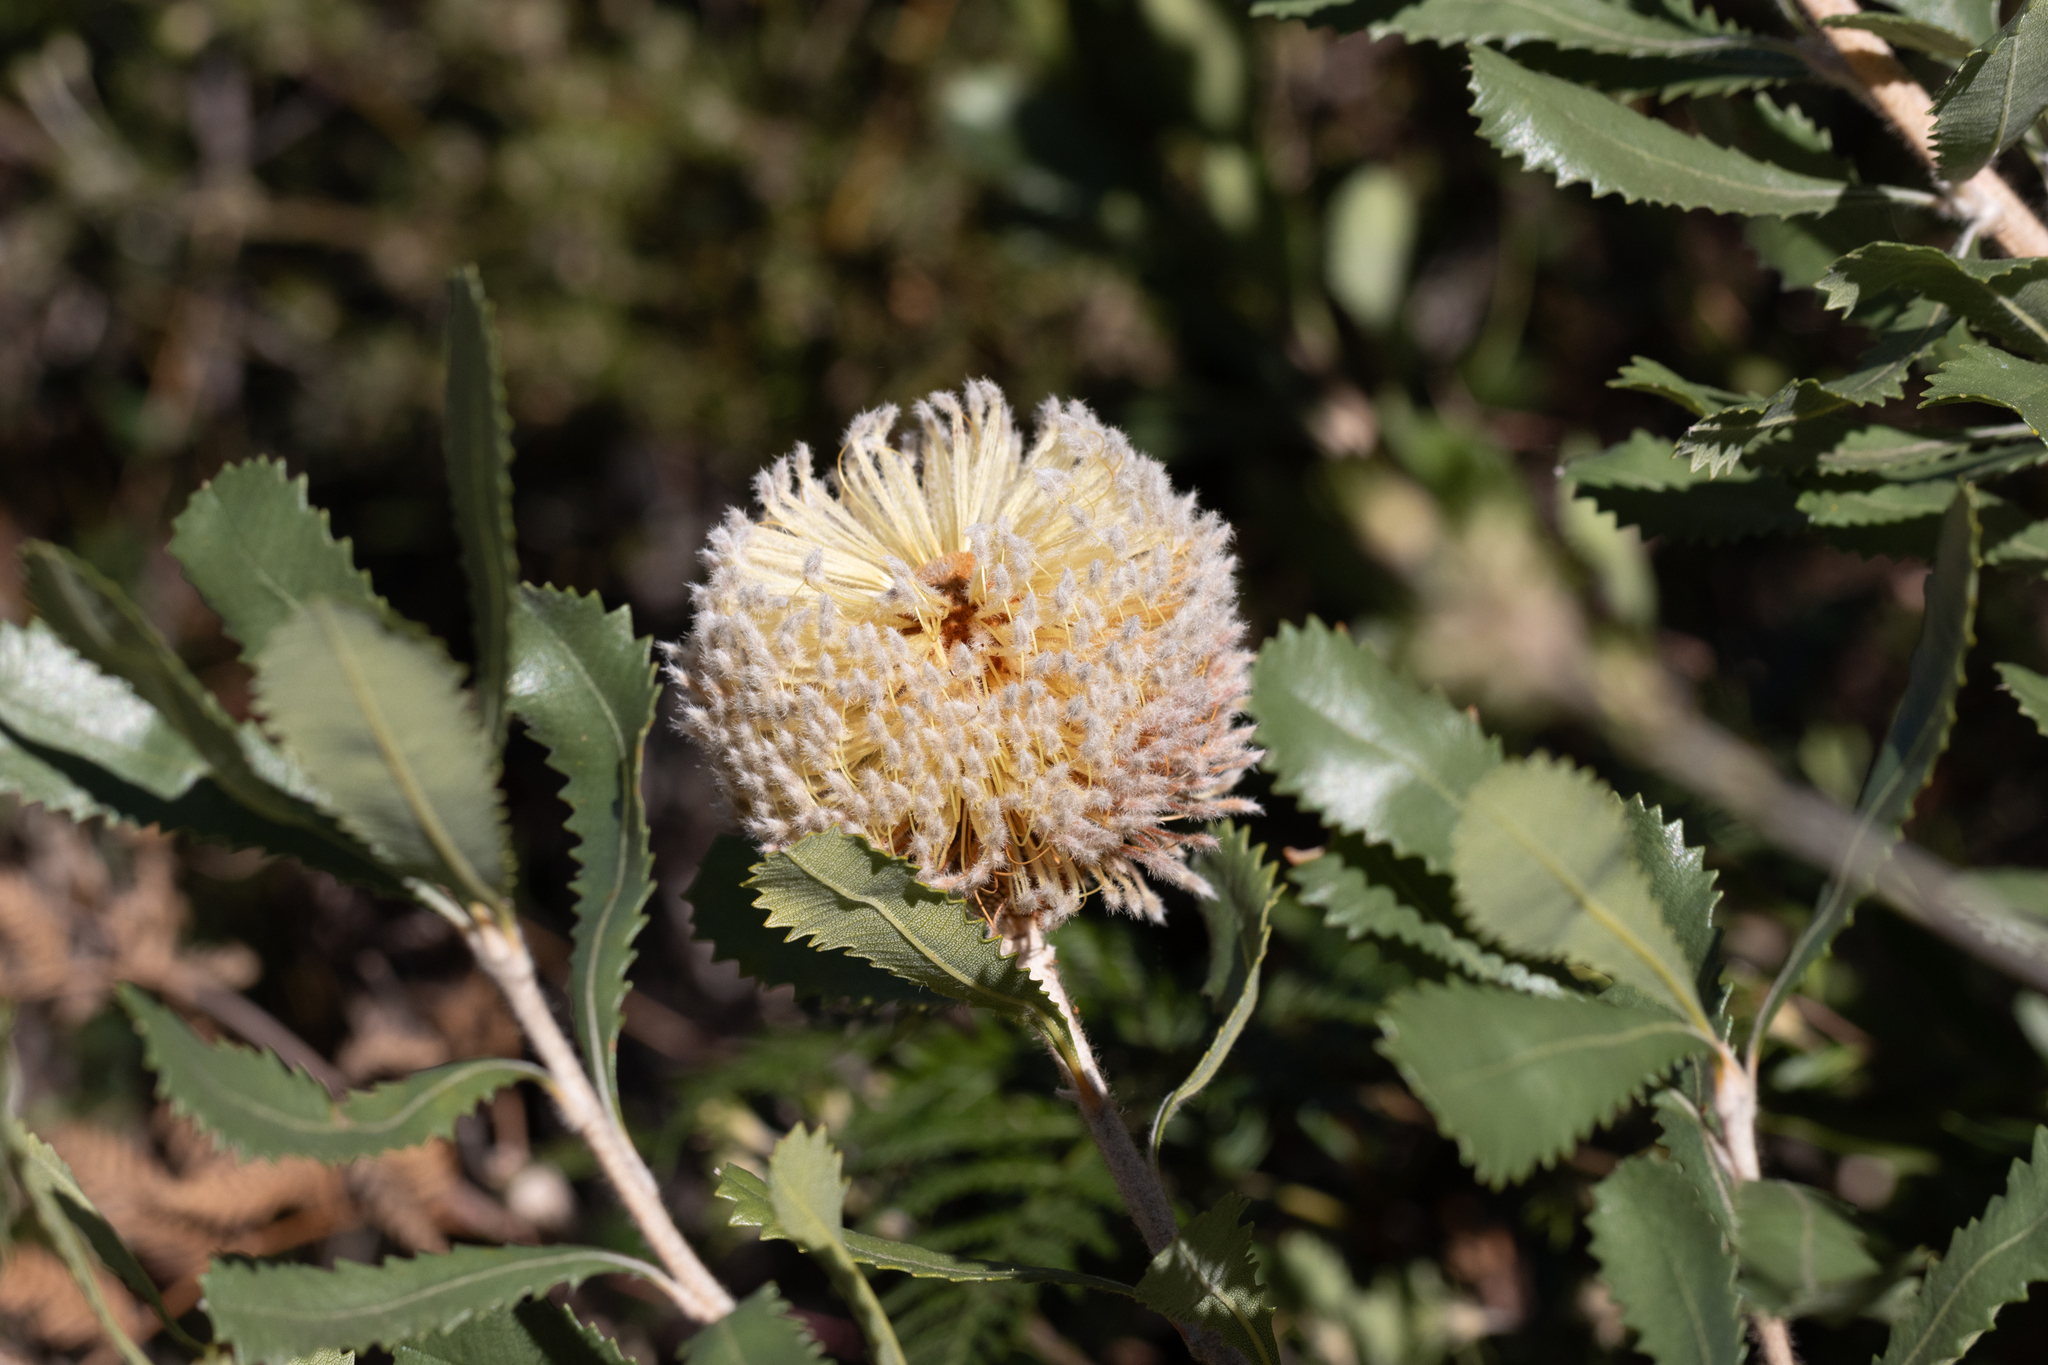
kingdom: Plantae
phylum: Tracheophyta
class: Magnoliopsida
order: Proteales
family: Proteaceae
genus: Banksia
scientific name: Banksia ornata
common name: Desert banksia
